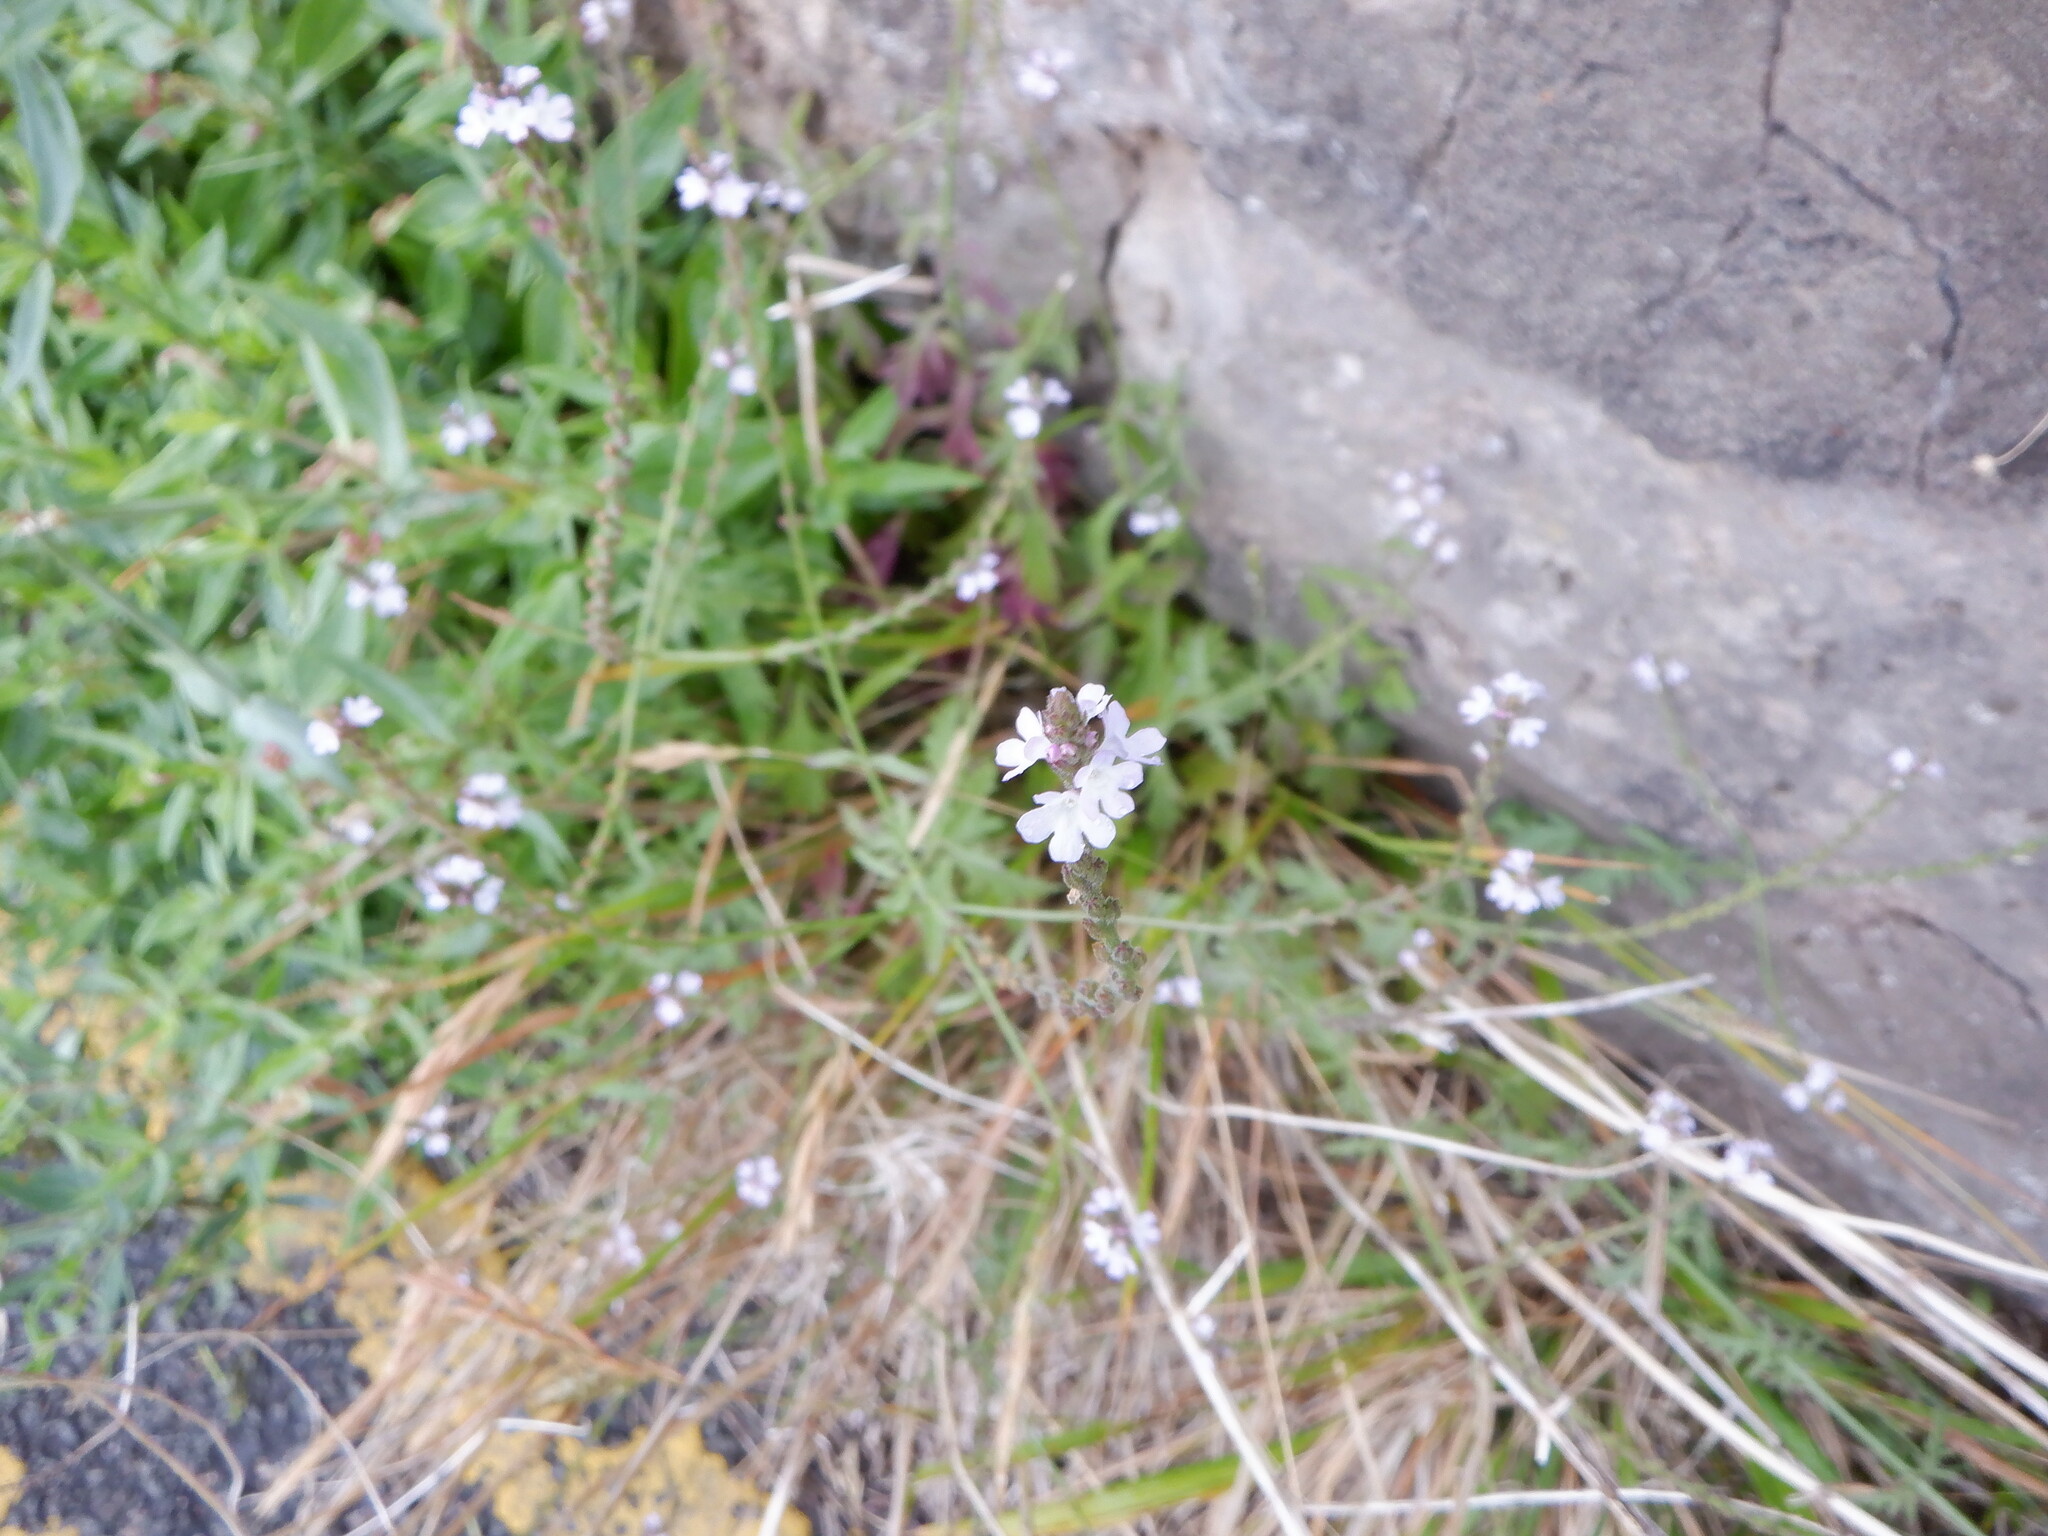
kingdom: Plantae
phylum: Tracheophyta
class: Magnoliopsida
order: Lamiales
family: Verbenaceae
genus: Verbena
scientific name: Verbena officinalis
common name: Vervain
